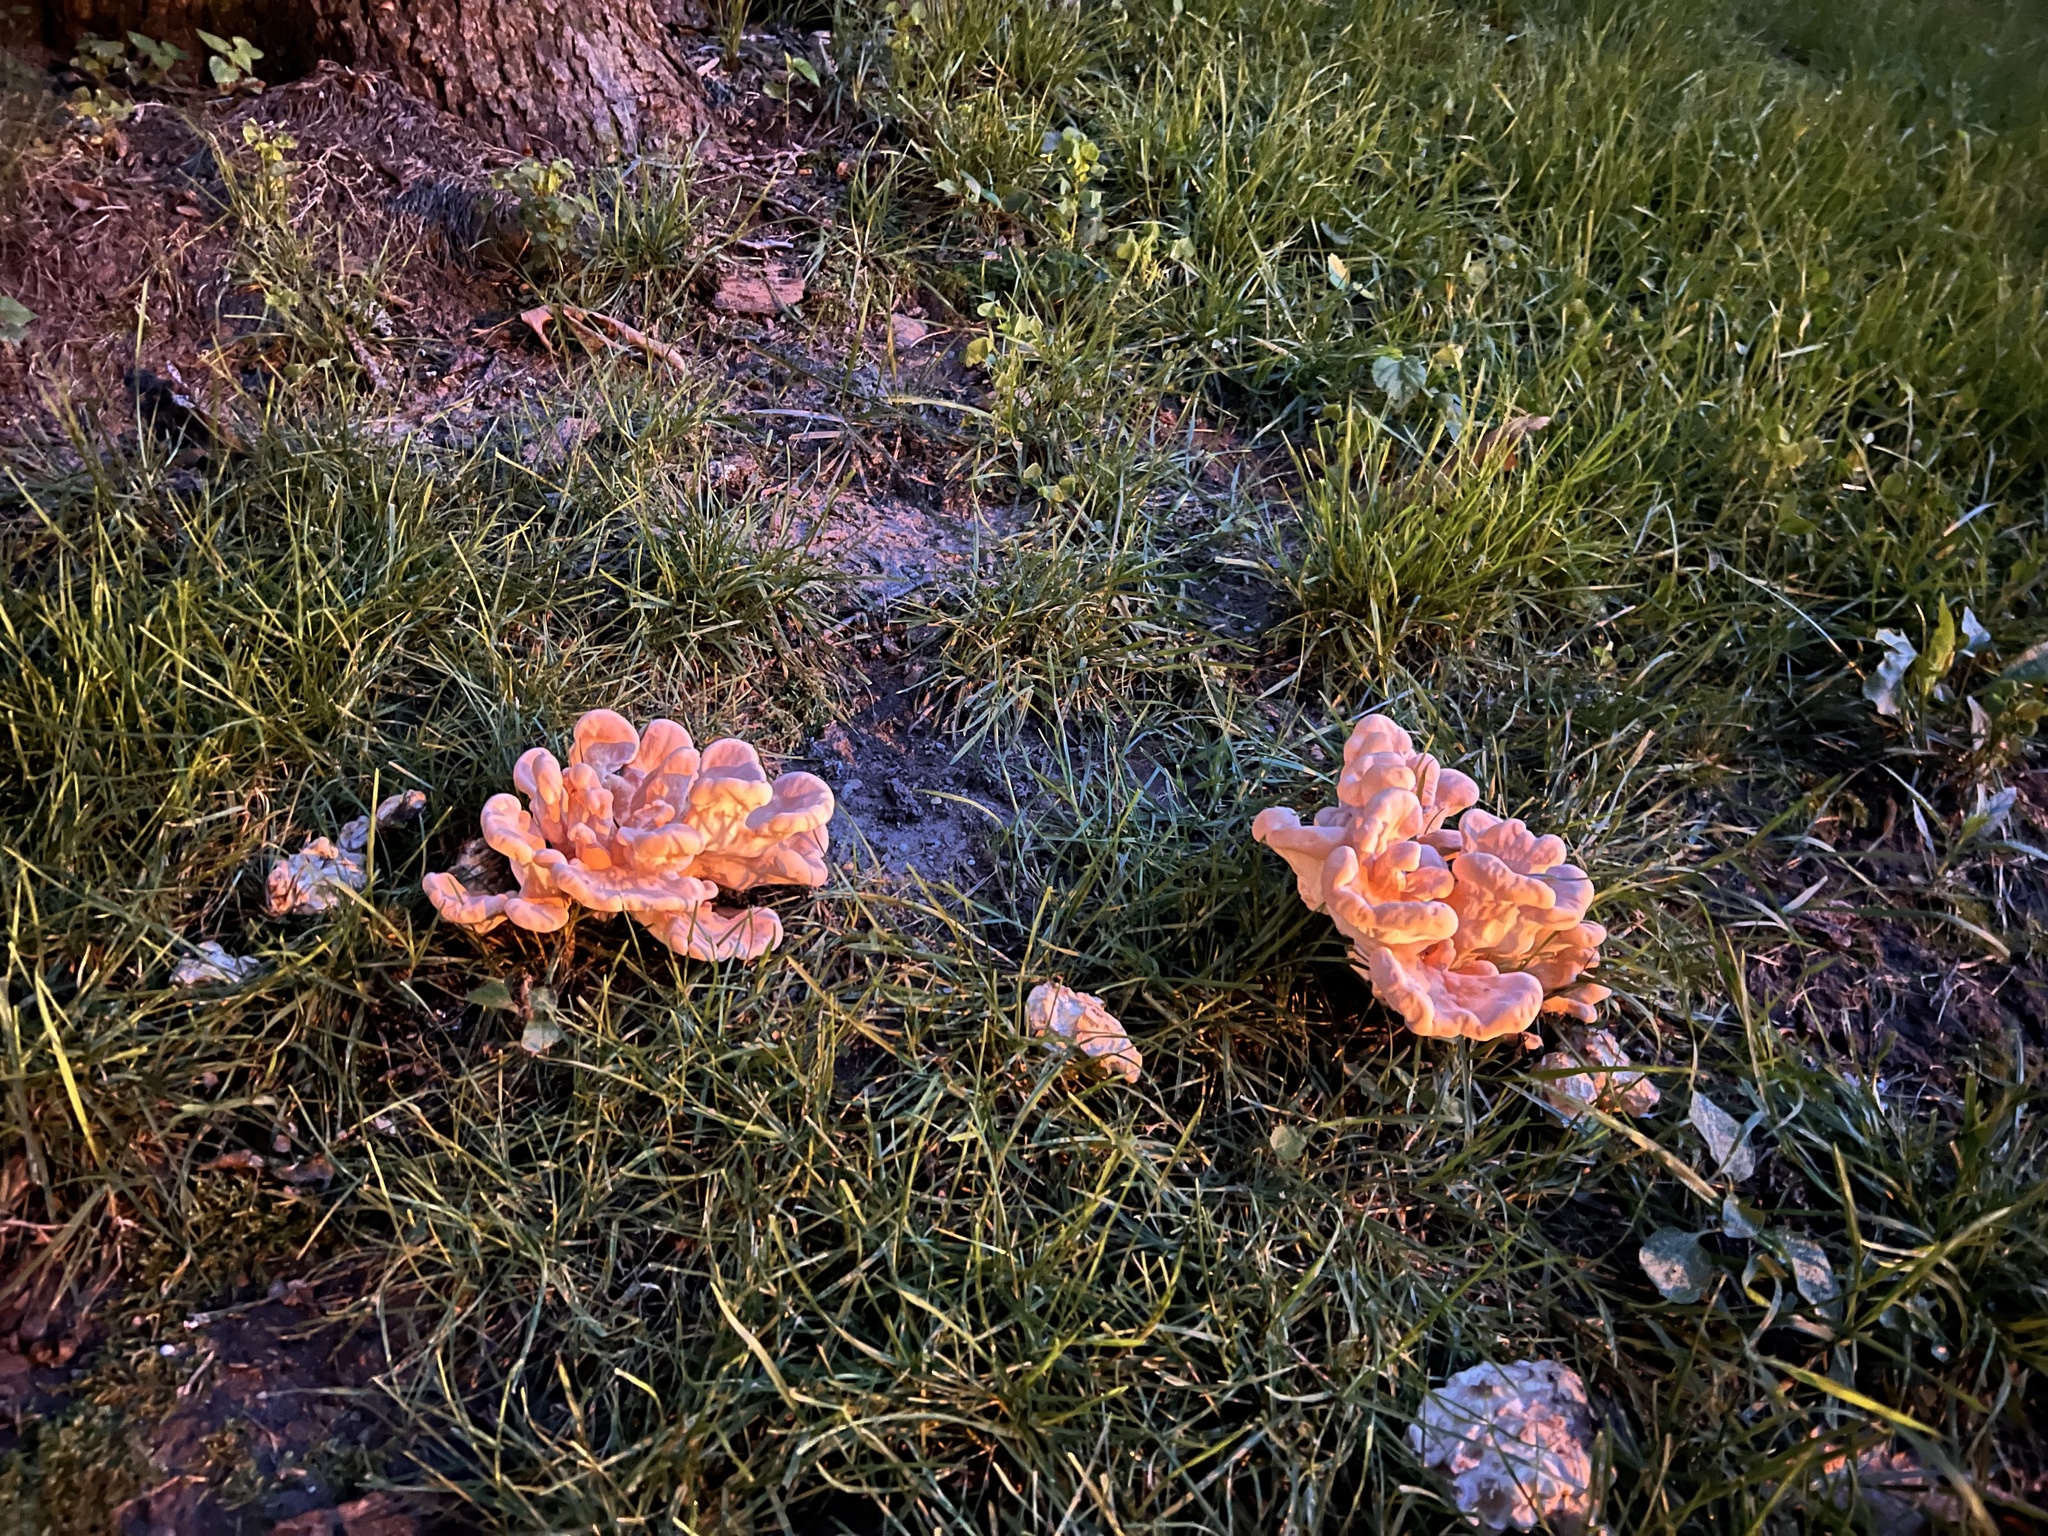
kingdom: Fungi
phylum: Basidiomycota
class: Agaricomycetes
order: Polyporales
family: Laetiporaceae
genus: Laetiporus
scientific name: Laetiporus sulphureus
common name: Chicken of the woods
